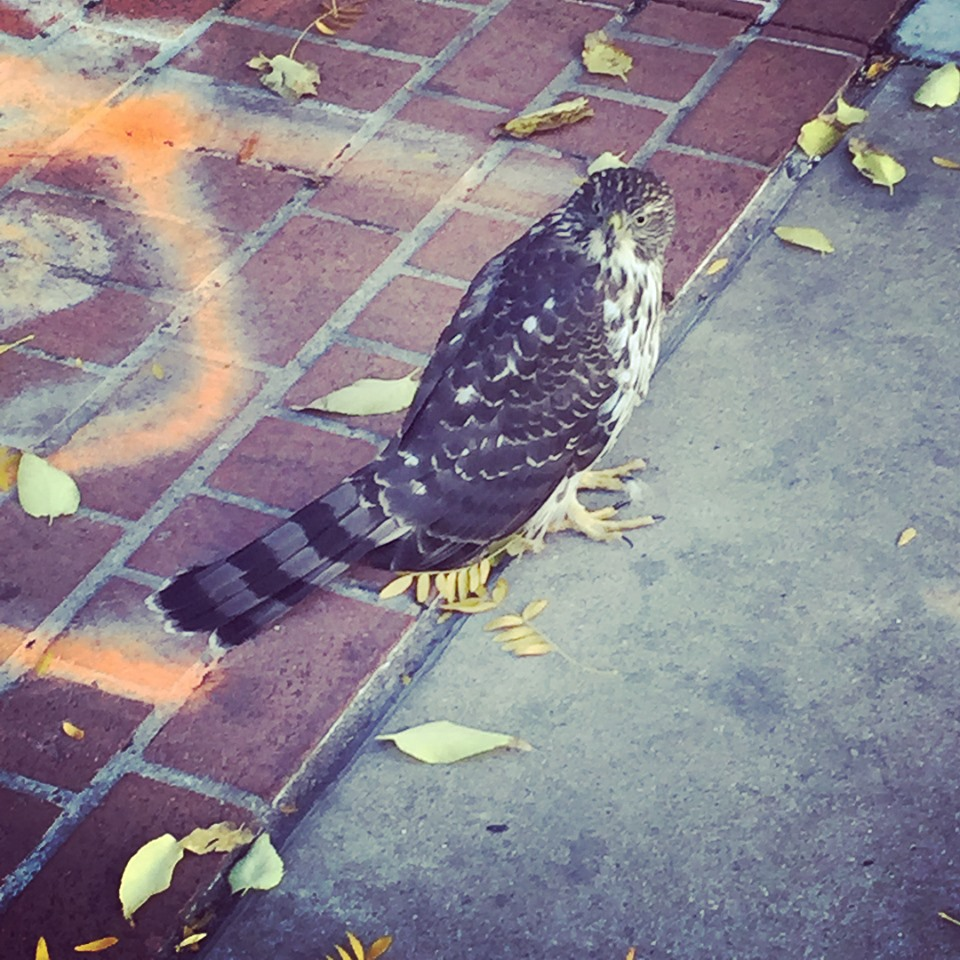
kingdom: Animalia
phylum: Chordata
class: Aves
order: Accipitriformes
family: Accipitridae
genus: Accipiter
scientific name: Accipiter cooperii
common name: Cooper's hawk
